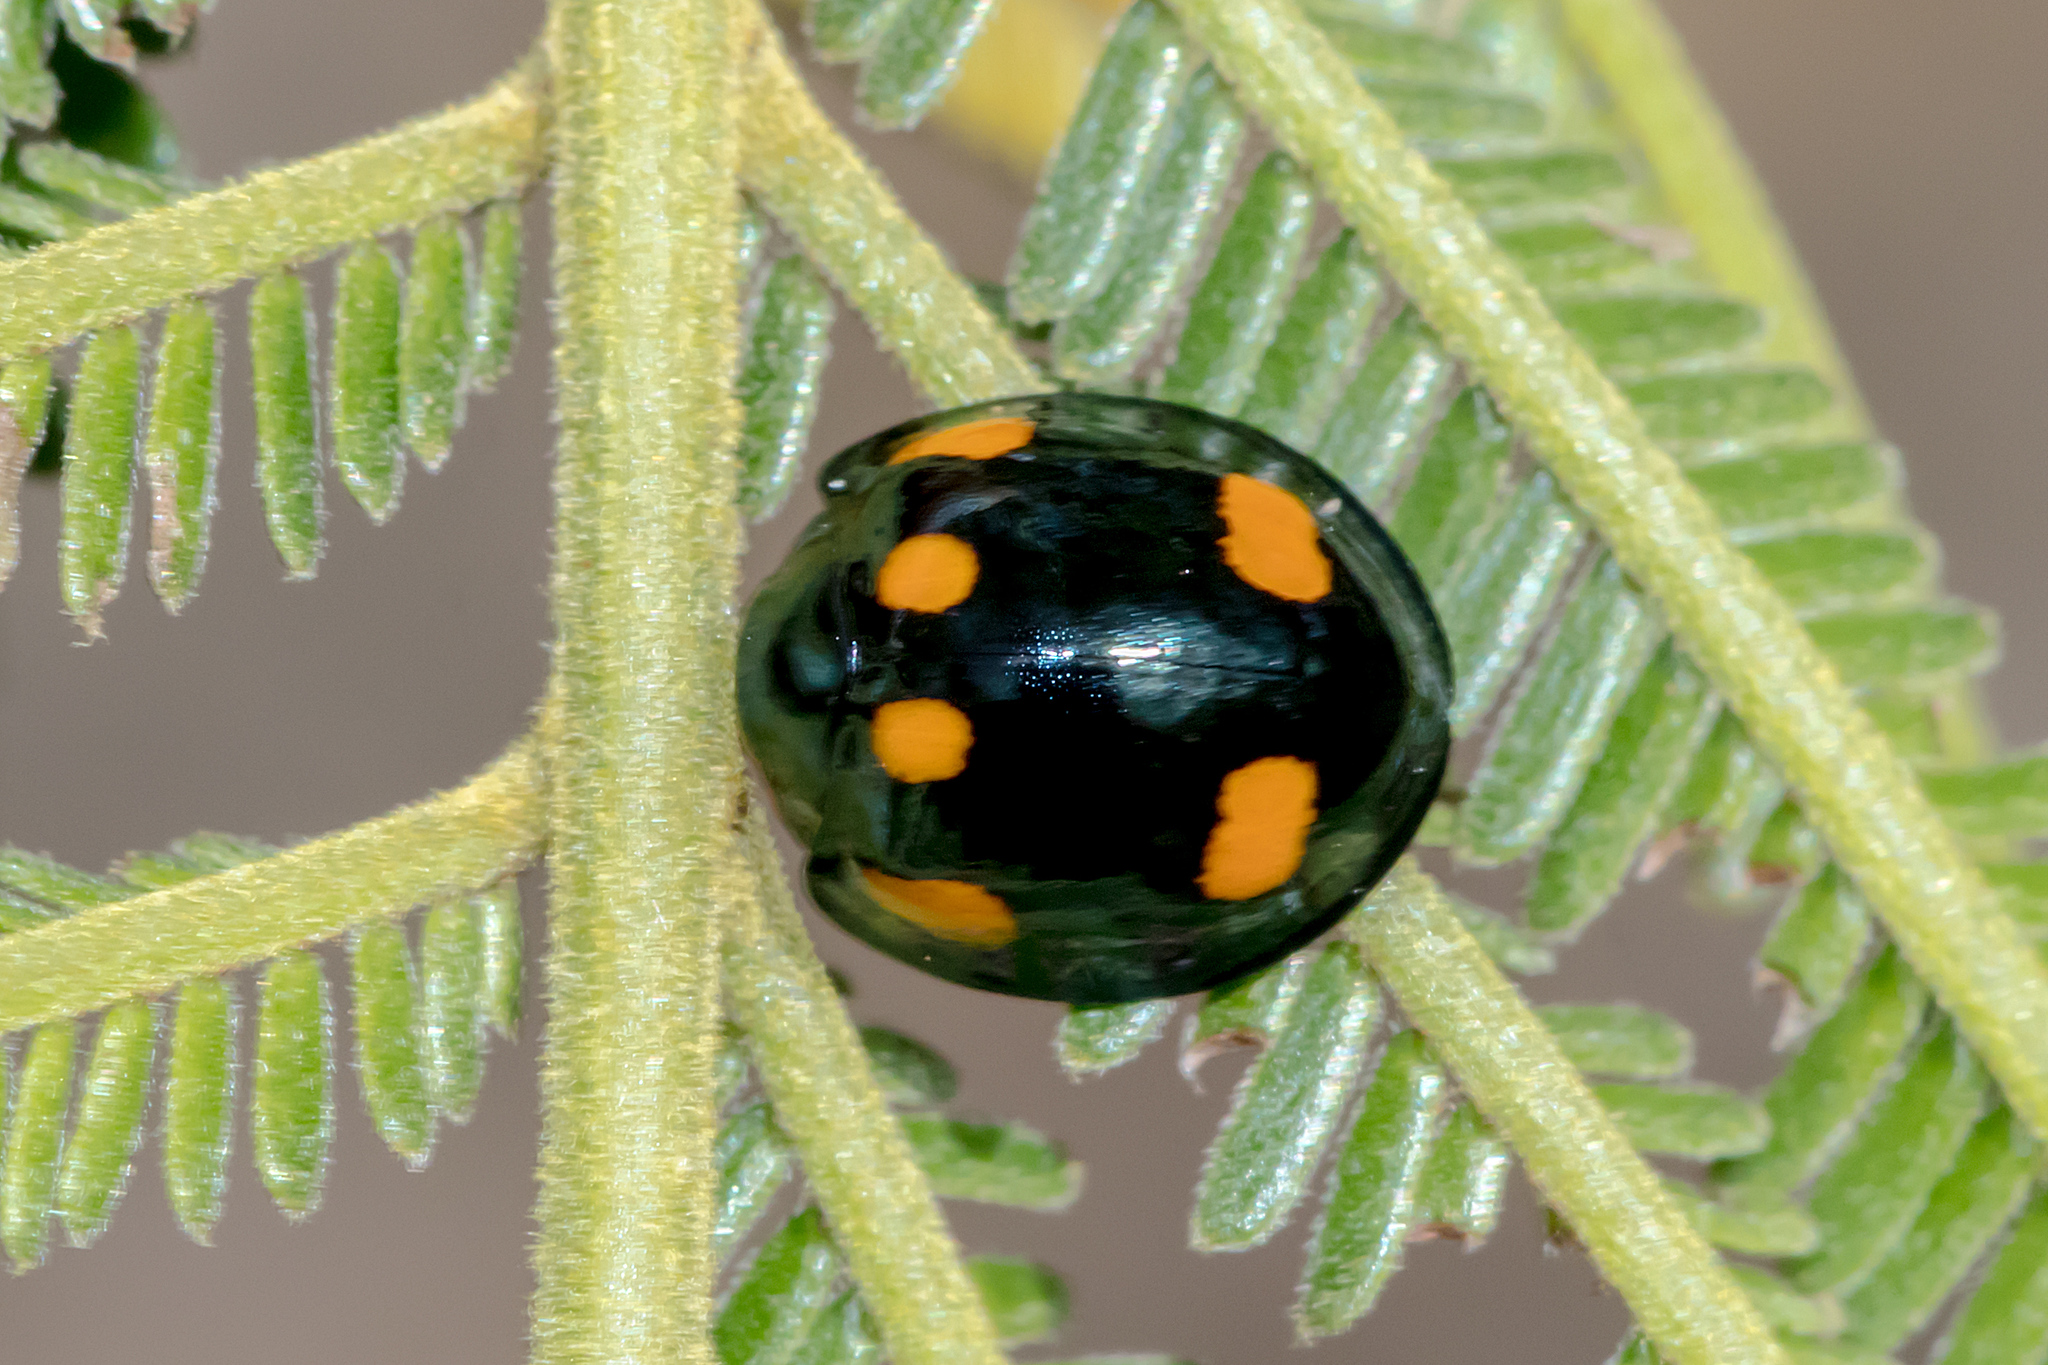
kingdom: Animalia
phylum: Arthropoda
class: Insecta
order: Coleoptera
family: Coccinellidae
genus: Orcus
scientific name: Orcus australasiae
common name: Lady beetle
